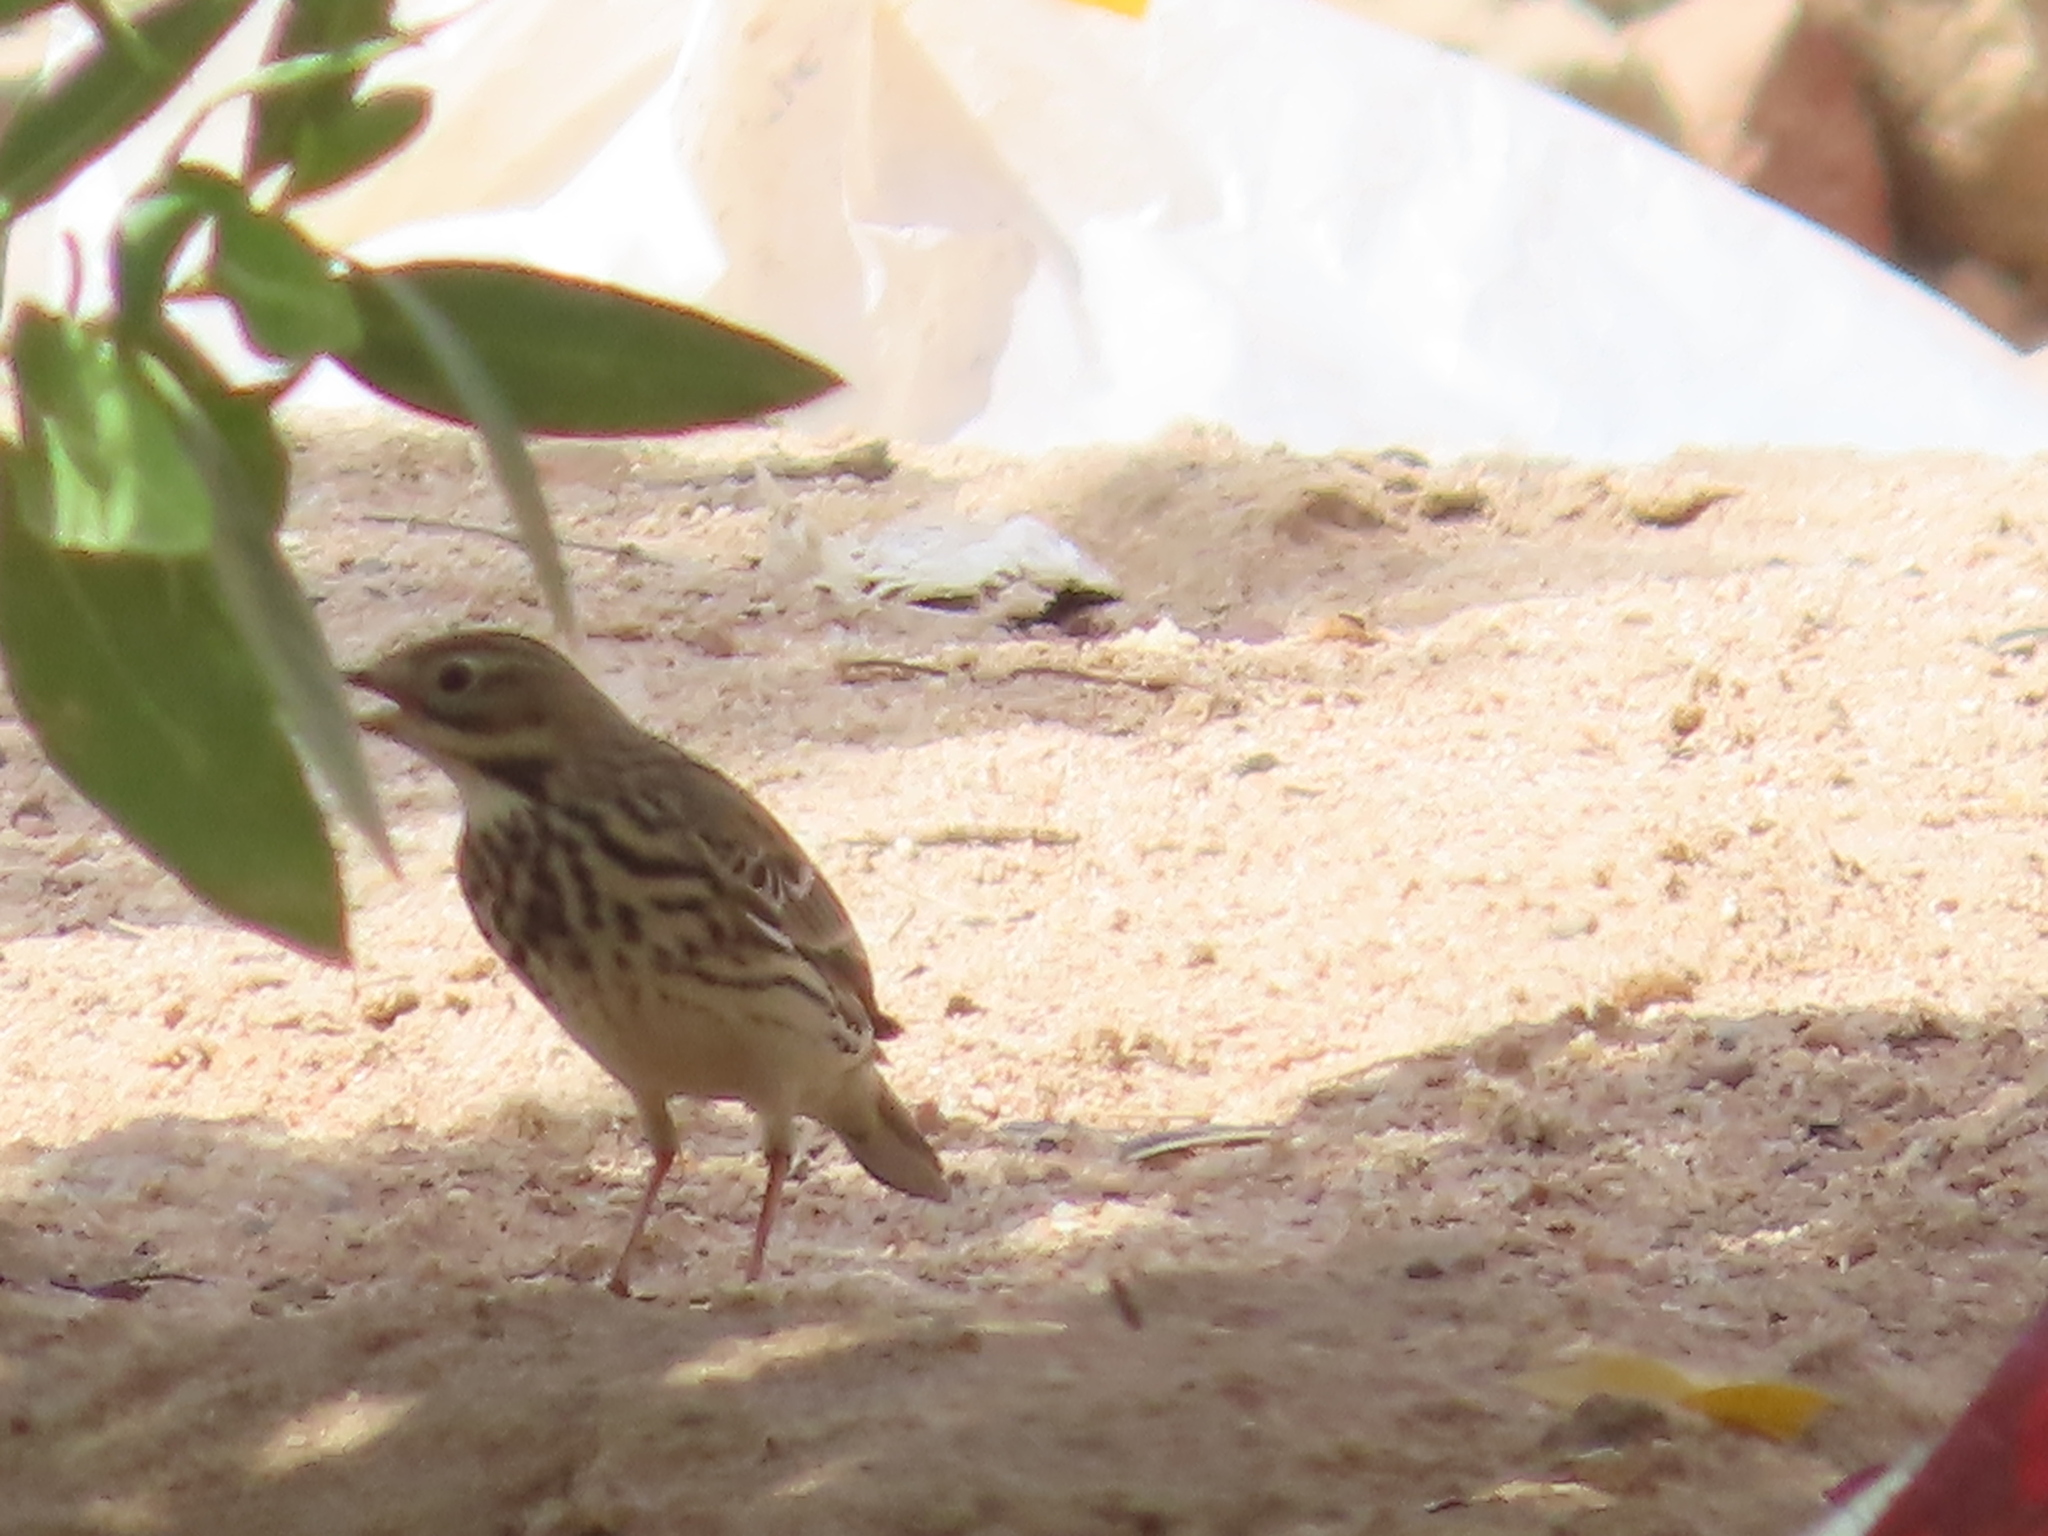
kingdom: Animalia
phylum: Chordata
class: Aves
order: Passeriformes
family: Motacillidae
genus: Anthus
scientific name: Anthus cervinus
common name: Red-throated pipit
